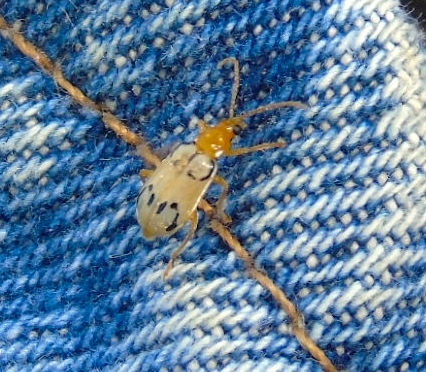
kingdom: Animalia
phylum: Arthropoda
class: Insecta
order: Coleoptera
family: Chrysomelidae
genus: Diabrotica
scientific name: Diabrotica
